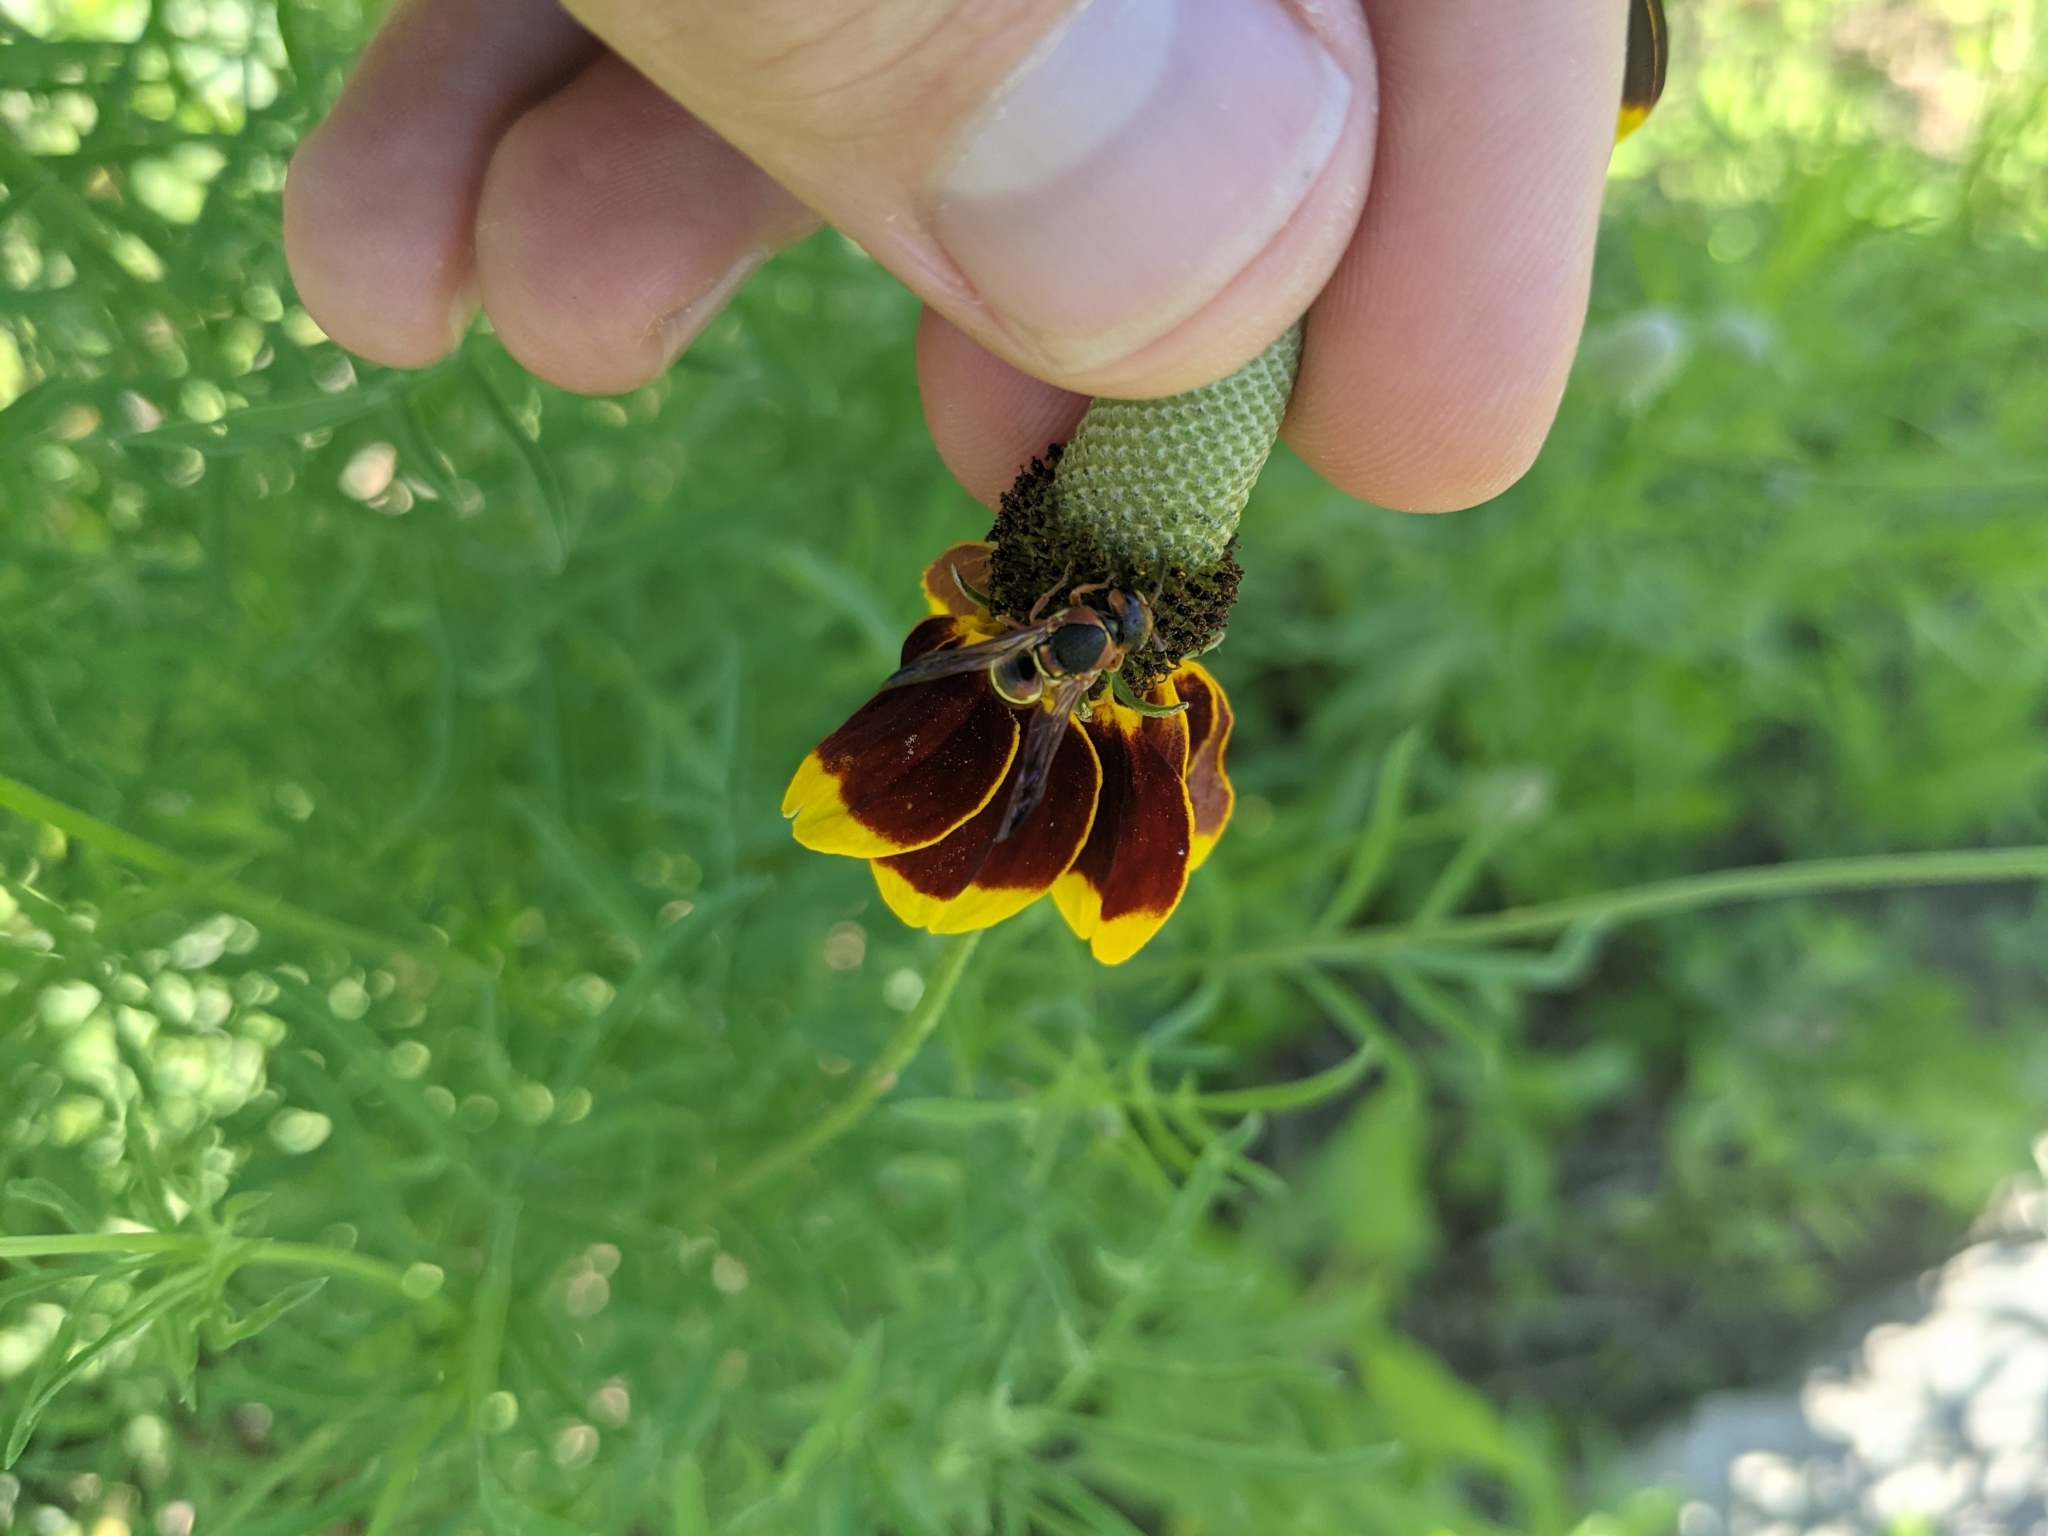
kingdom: Animalia
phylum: Arthropoda
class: Insecta
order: Hymenoptera
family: Eumenidae
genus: Euodynerus
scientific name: Euodynerus annulatus
